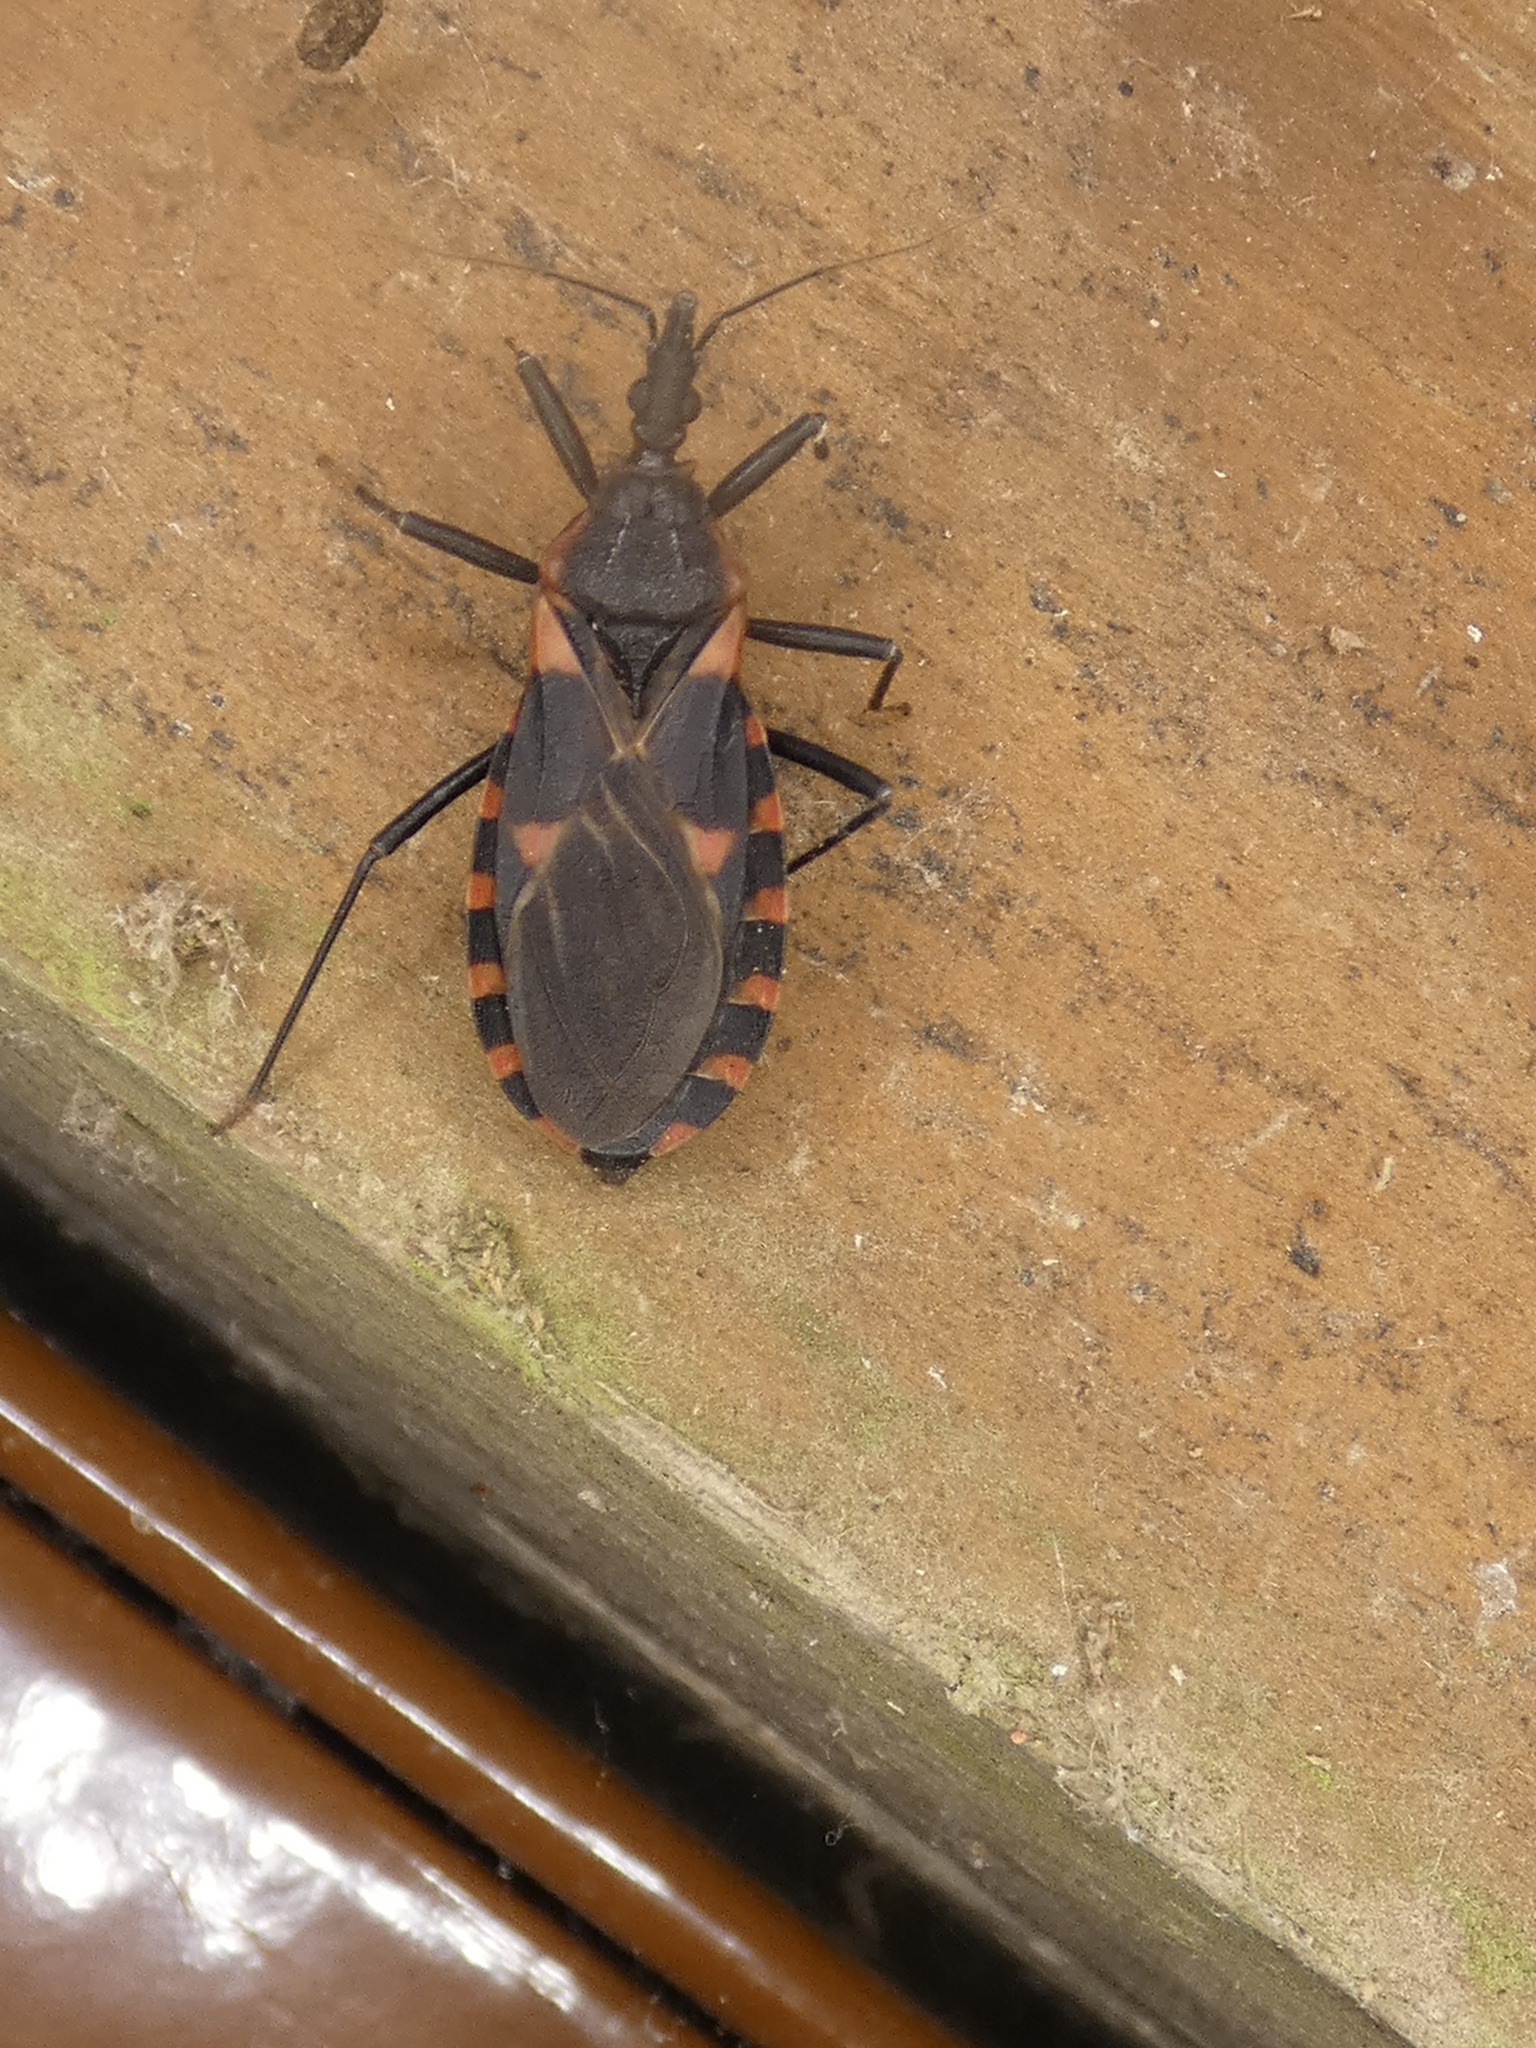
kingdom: Animalia
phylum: Arthropoda
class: Insecta
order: Hemiptera
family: Reduviidae
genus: Triatoma
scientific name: Triatoma sanguisuga
